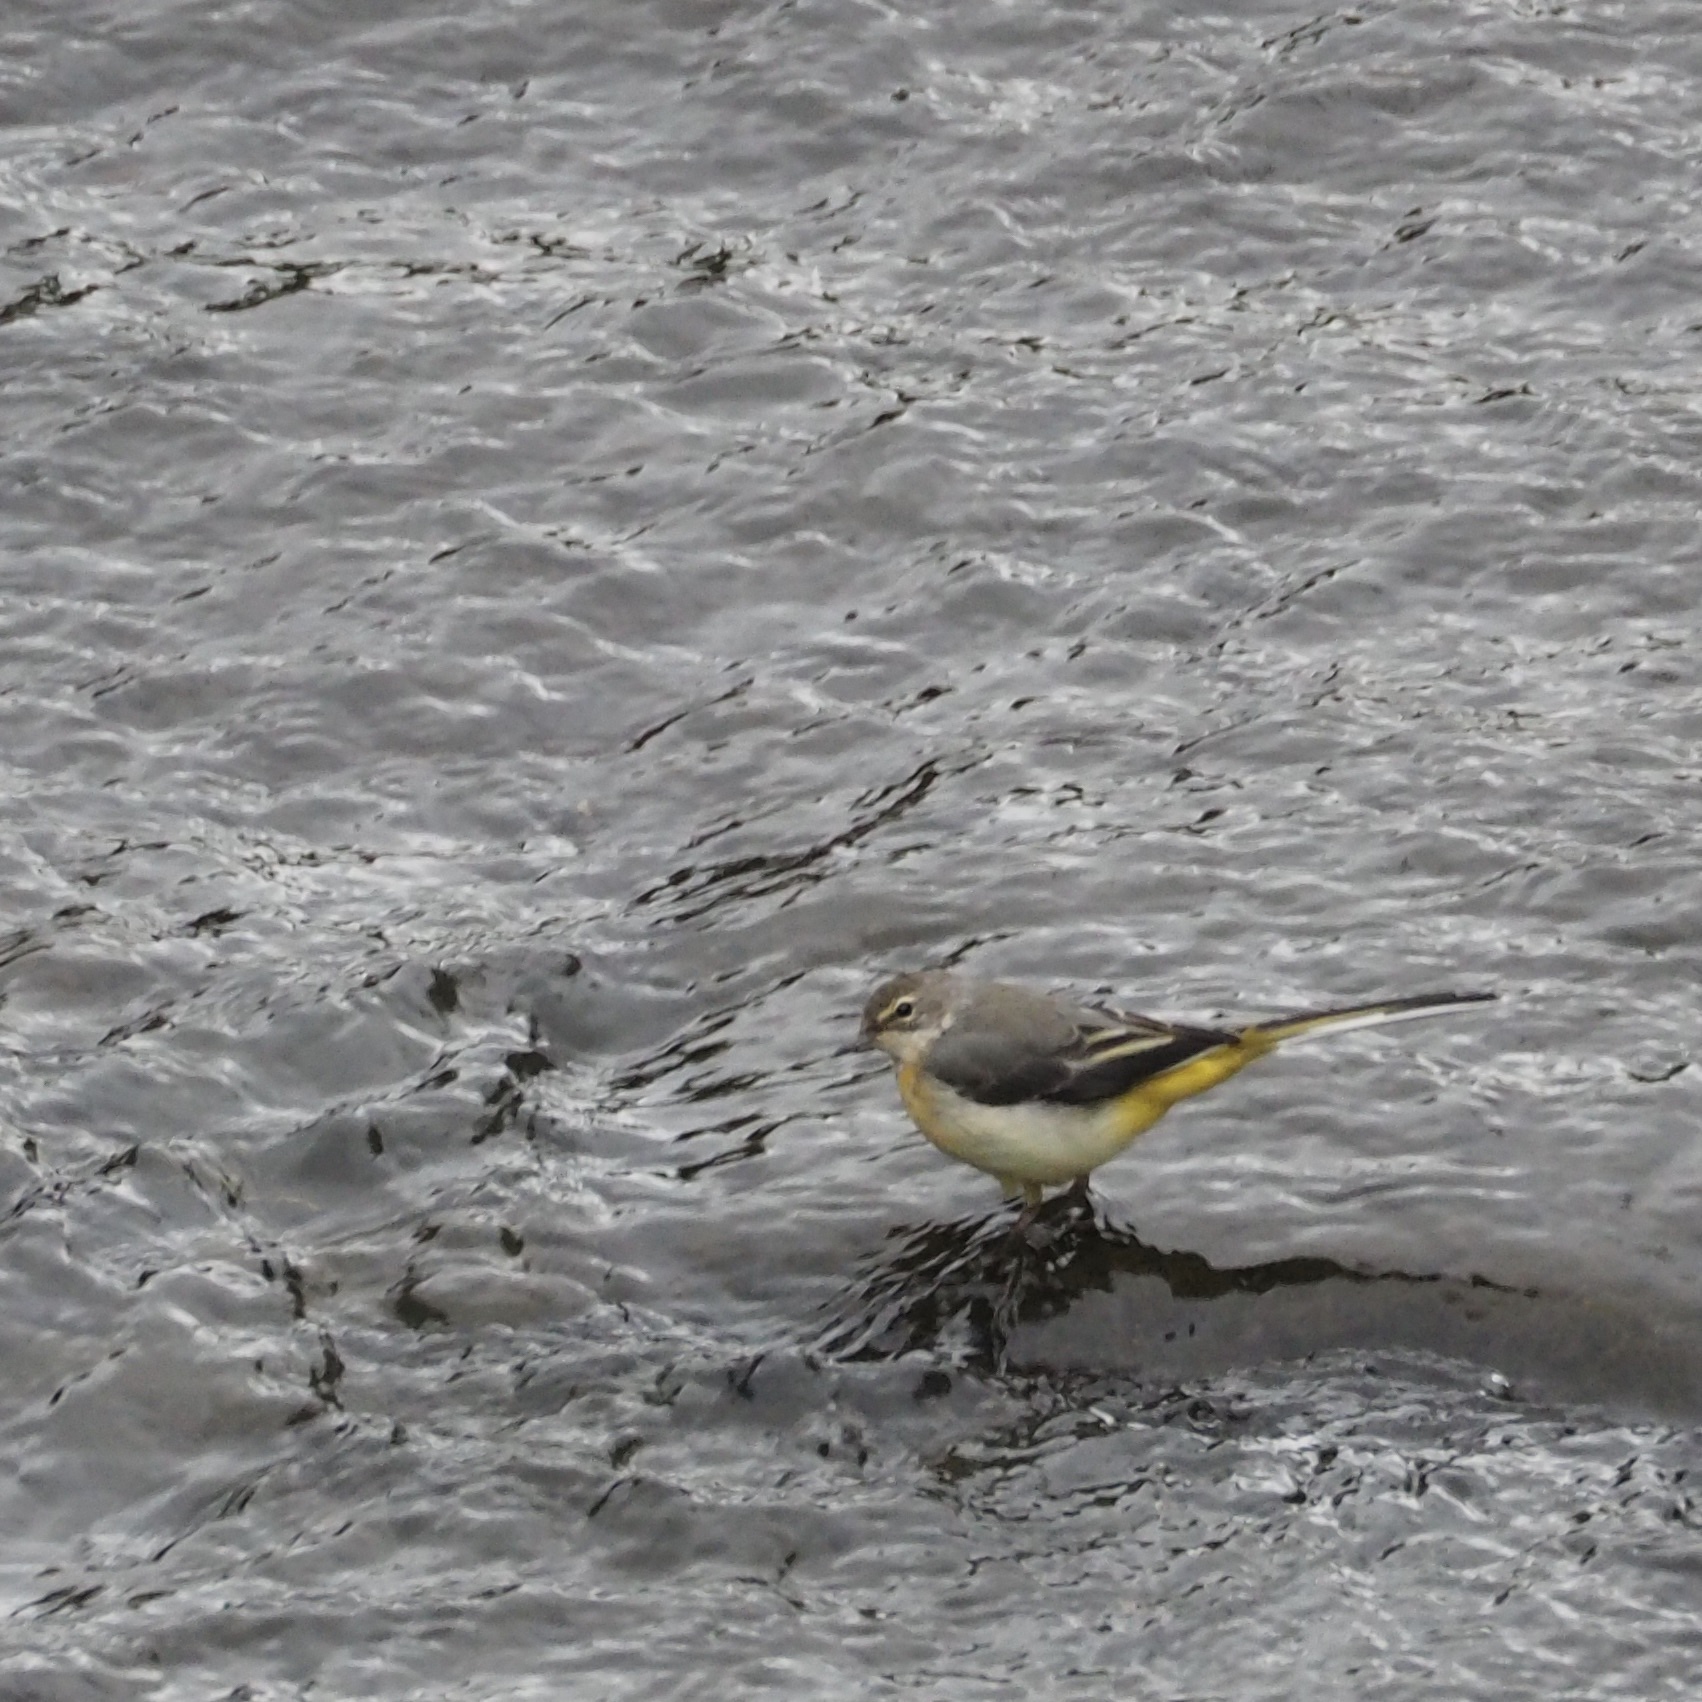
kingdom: Animalia
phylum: Chordata
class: Aves
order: Passeriformes
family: Motacillidae
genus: Motacilla
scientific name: Motacilla cinerea
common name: Grey wagtail
